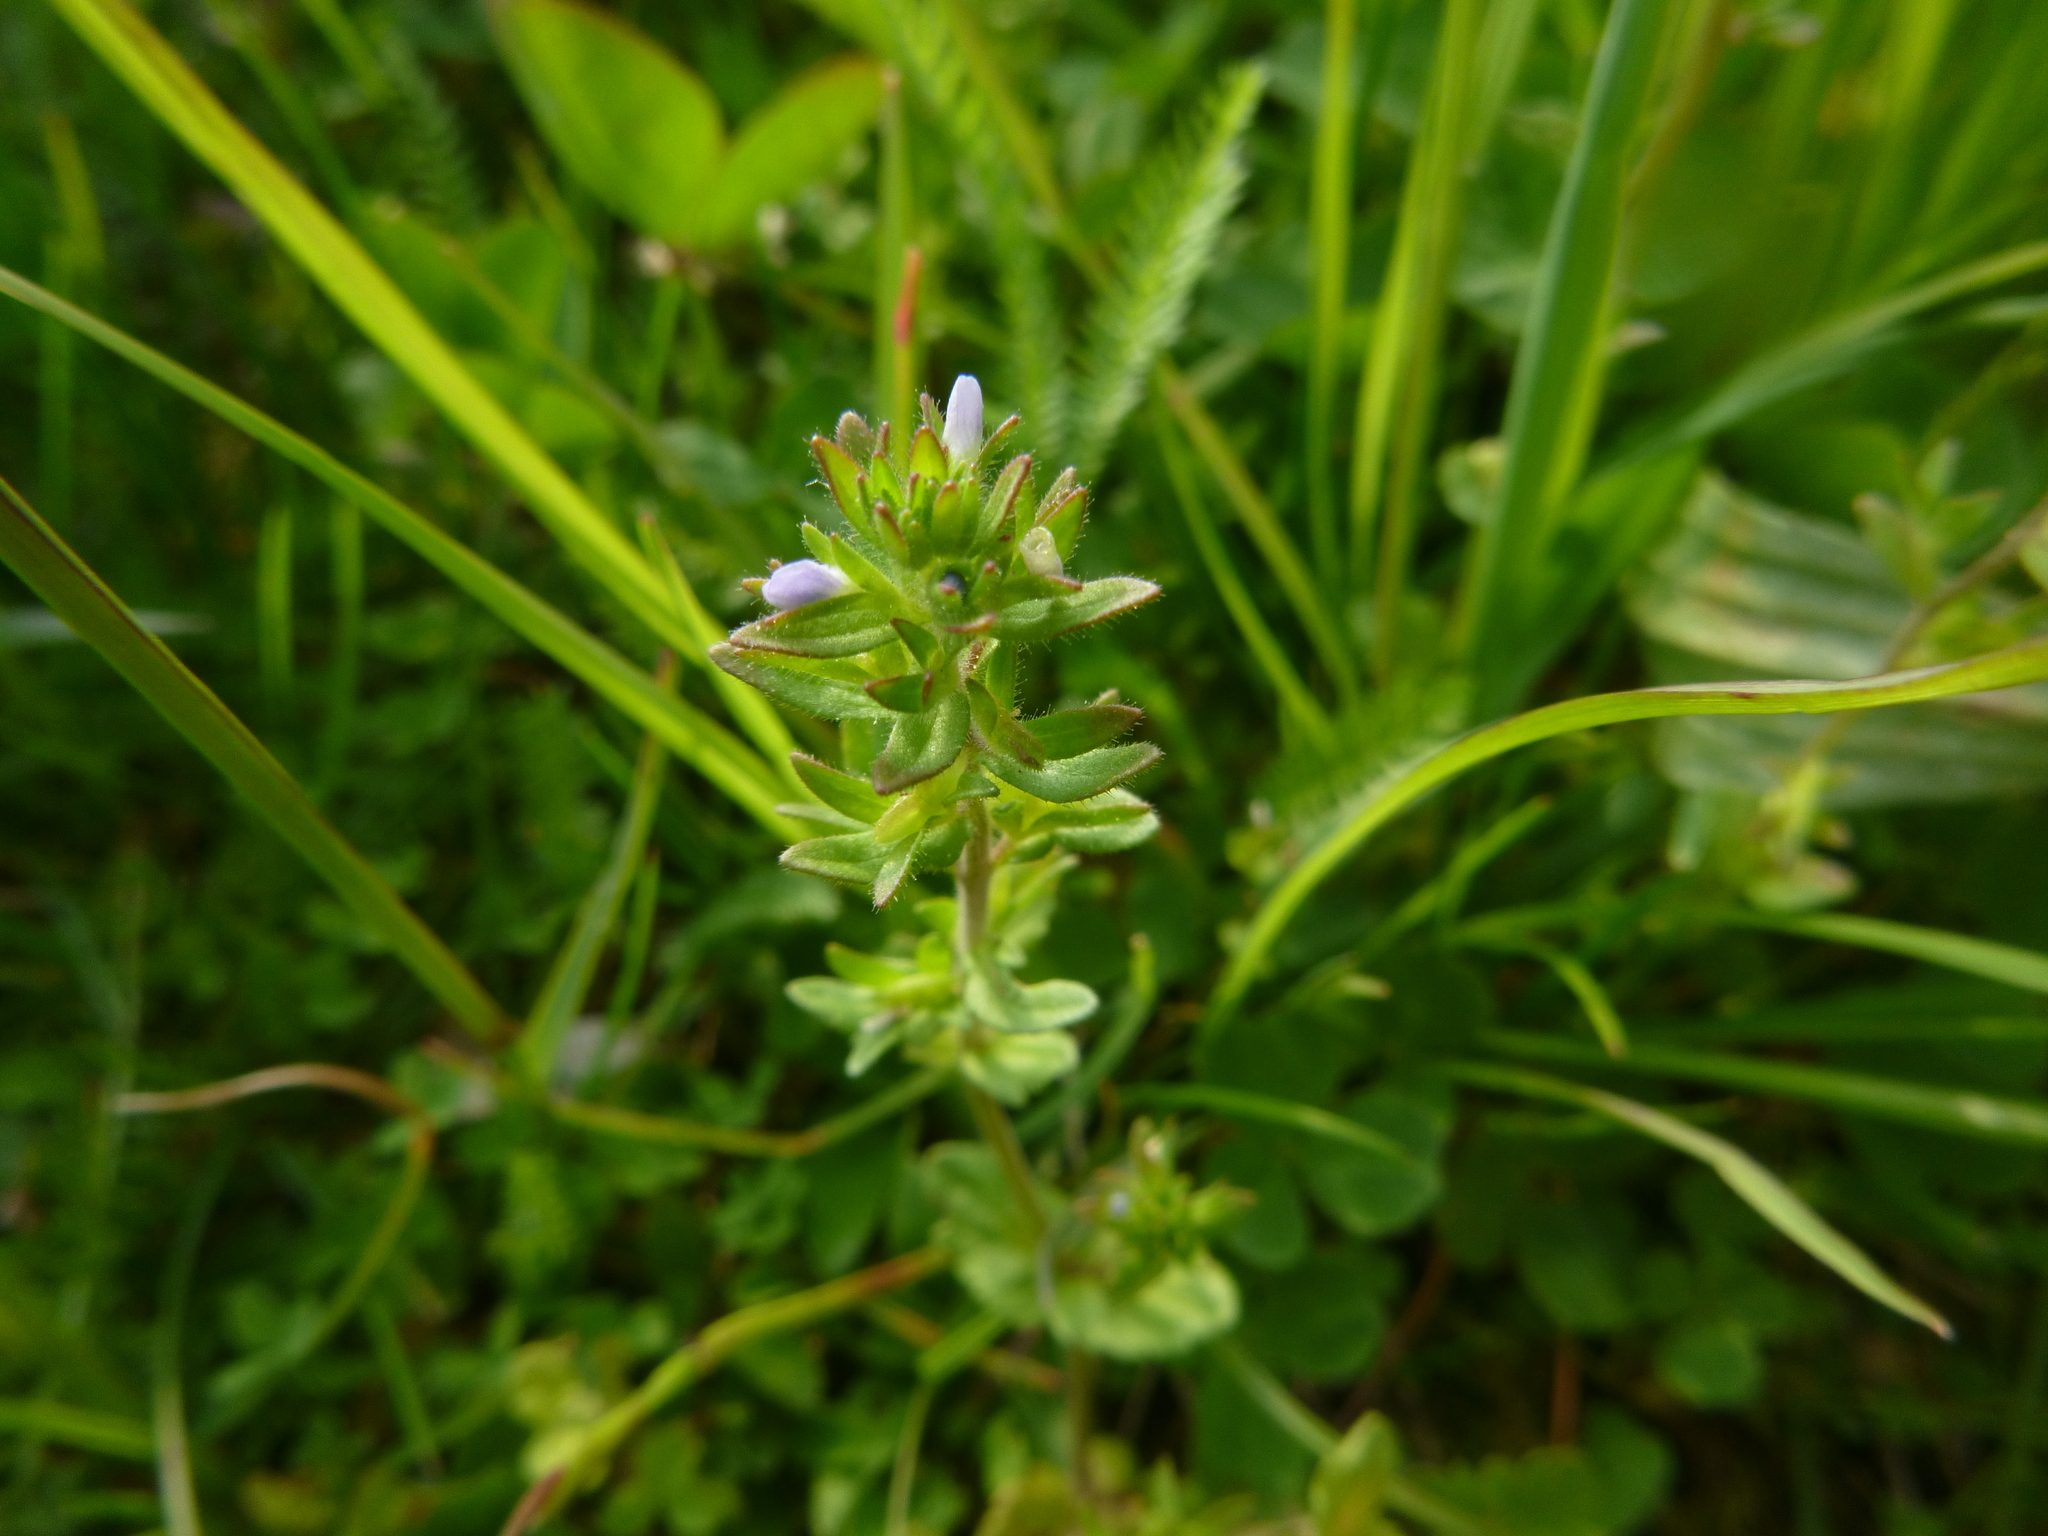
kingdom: Plantae
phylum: Tracheophyta
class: Magnoliopsida
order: Lamiales
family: Plantaginaceae
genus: Veronica
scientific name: Veronica arvensis
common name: Corn speedwell
